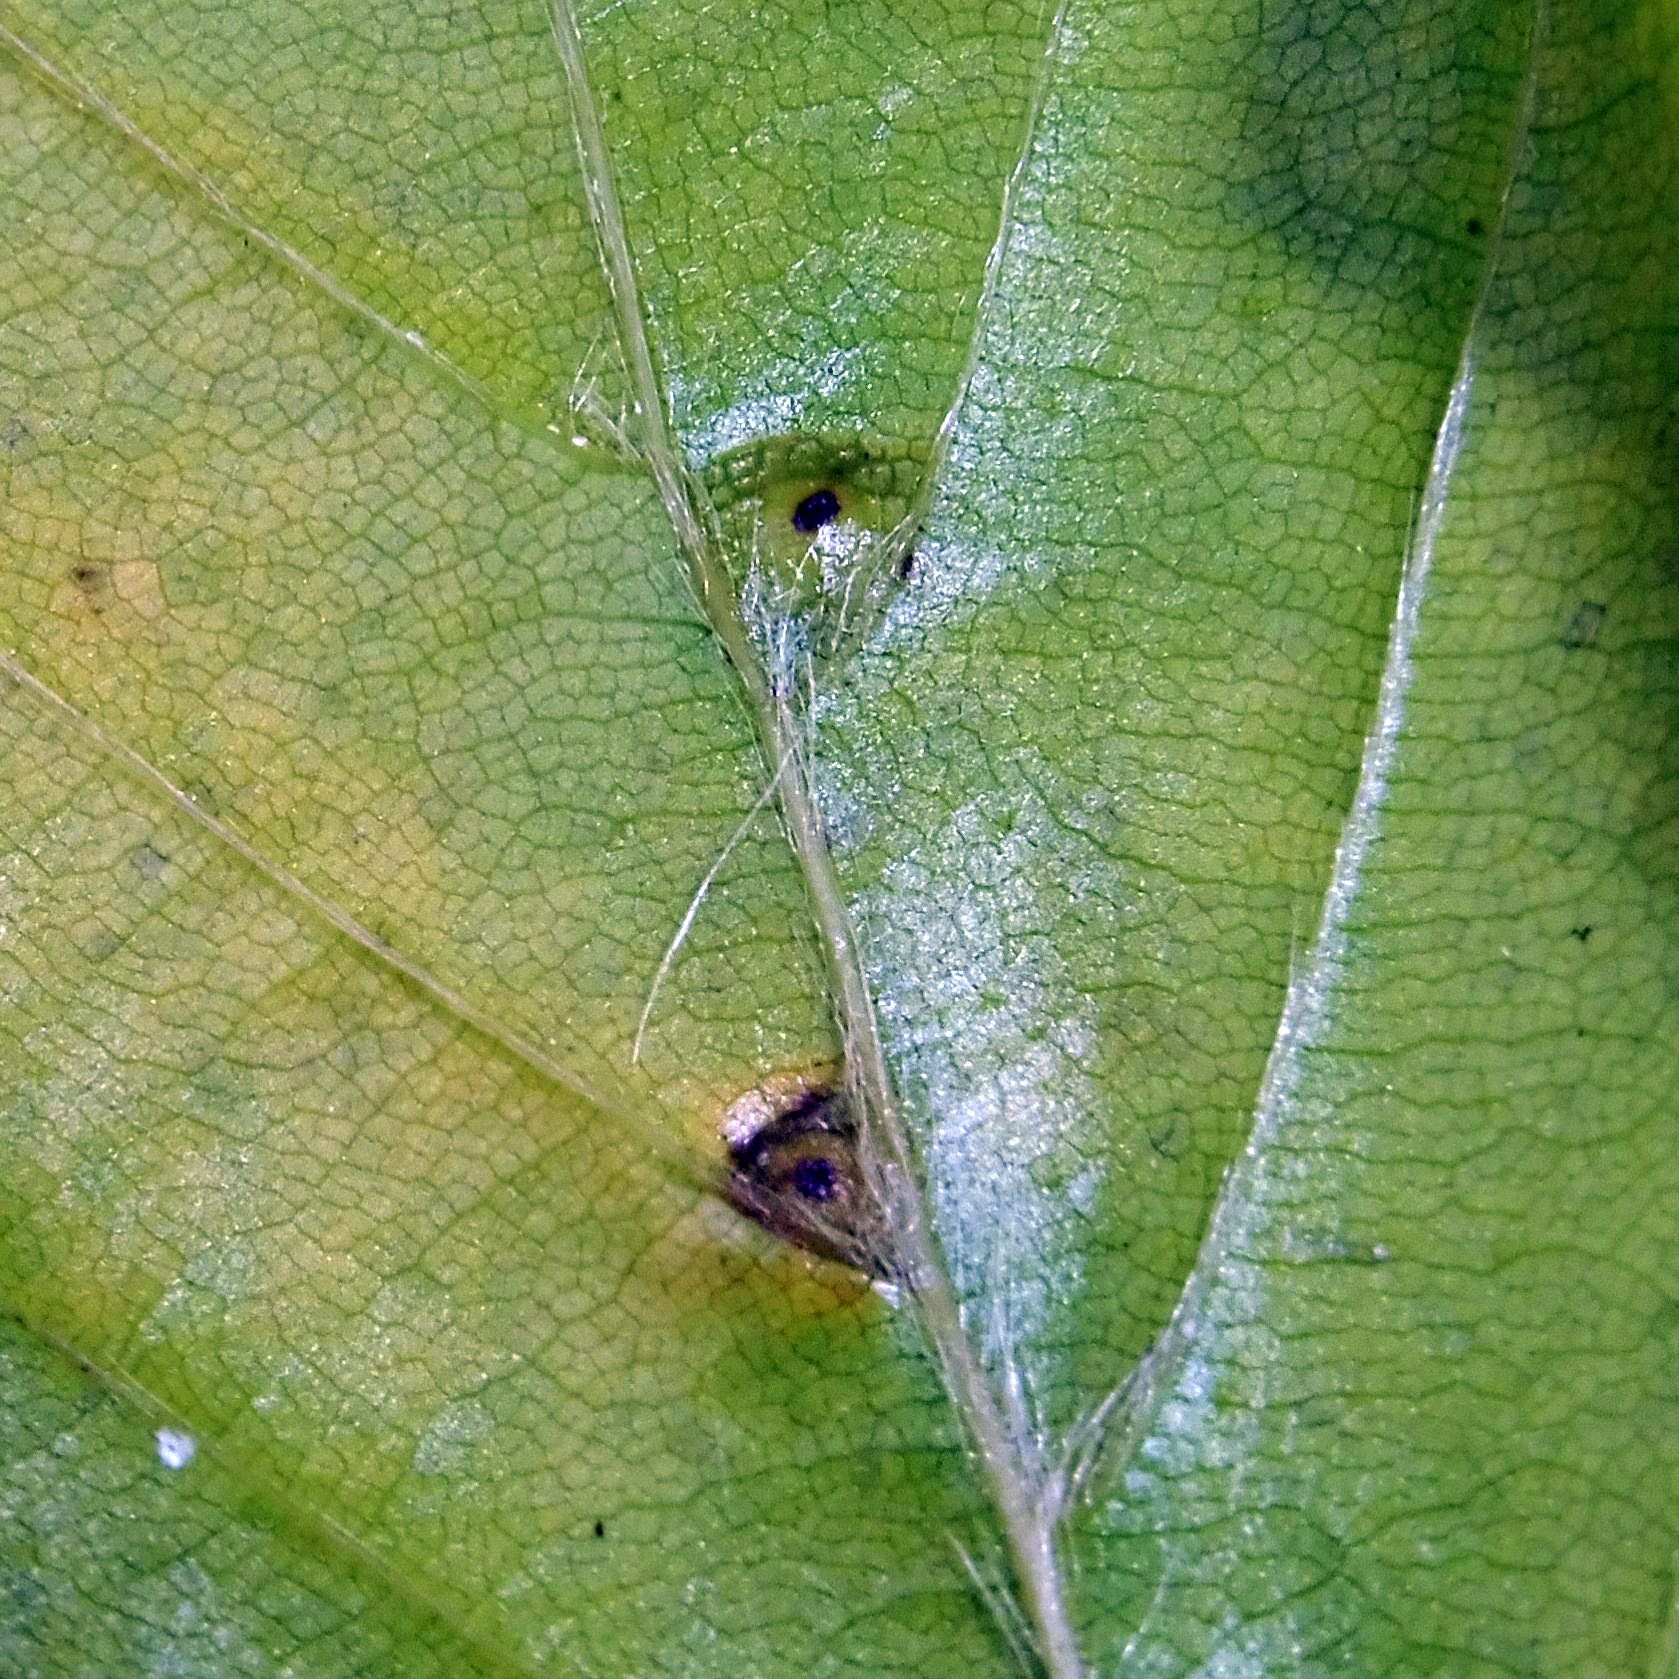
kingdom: Animalia
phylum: Arthropoda
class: Insecta
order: Diptera
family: Cecidomyiidae
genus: Hartigiola
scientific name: Hartigiola annulipes
